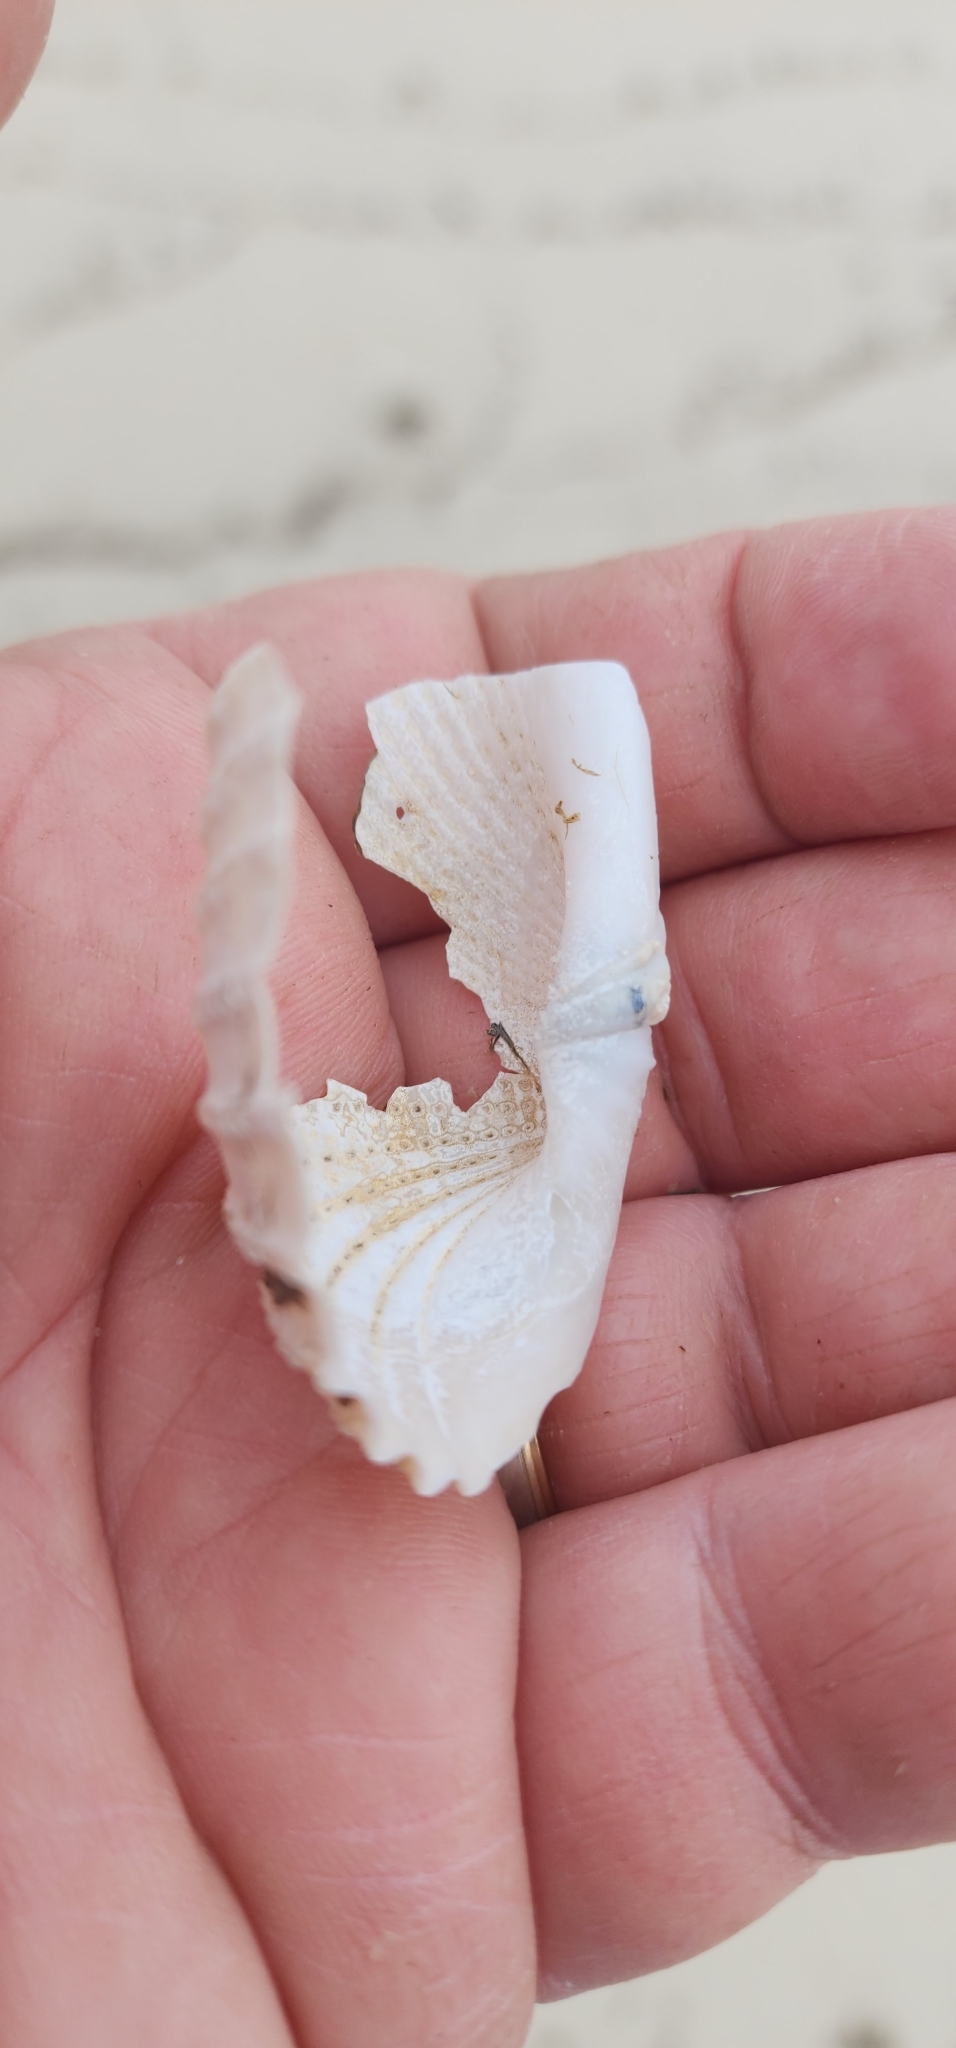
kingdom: Animalia
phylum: Mollusca
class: Bivalvia
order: Myida
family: Pholadidae
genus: Cyrtopleura
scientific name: Cyrtopleura costata
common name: Angel wing
